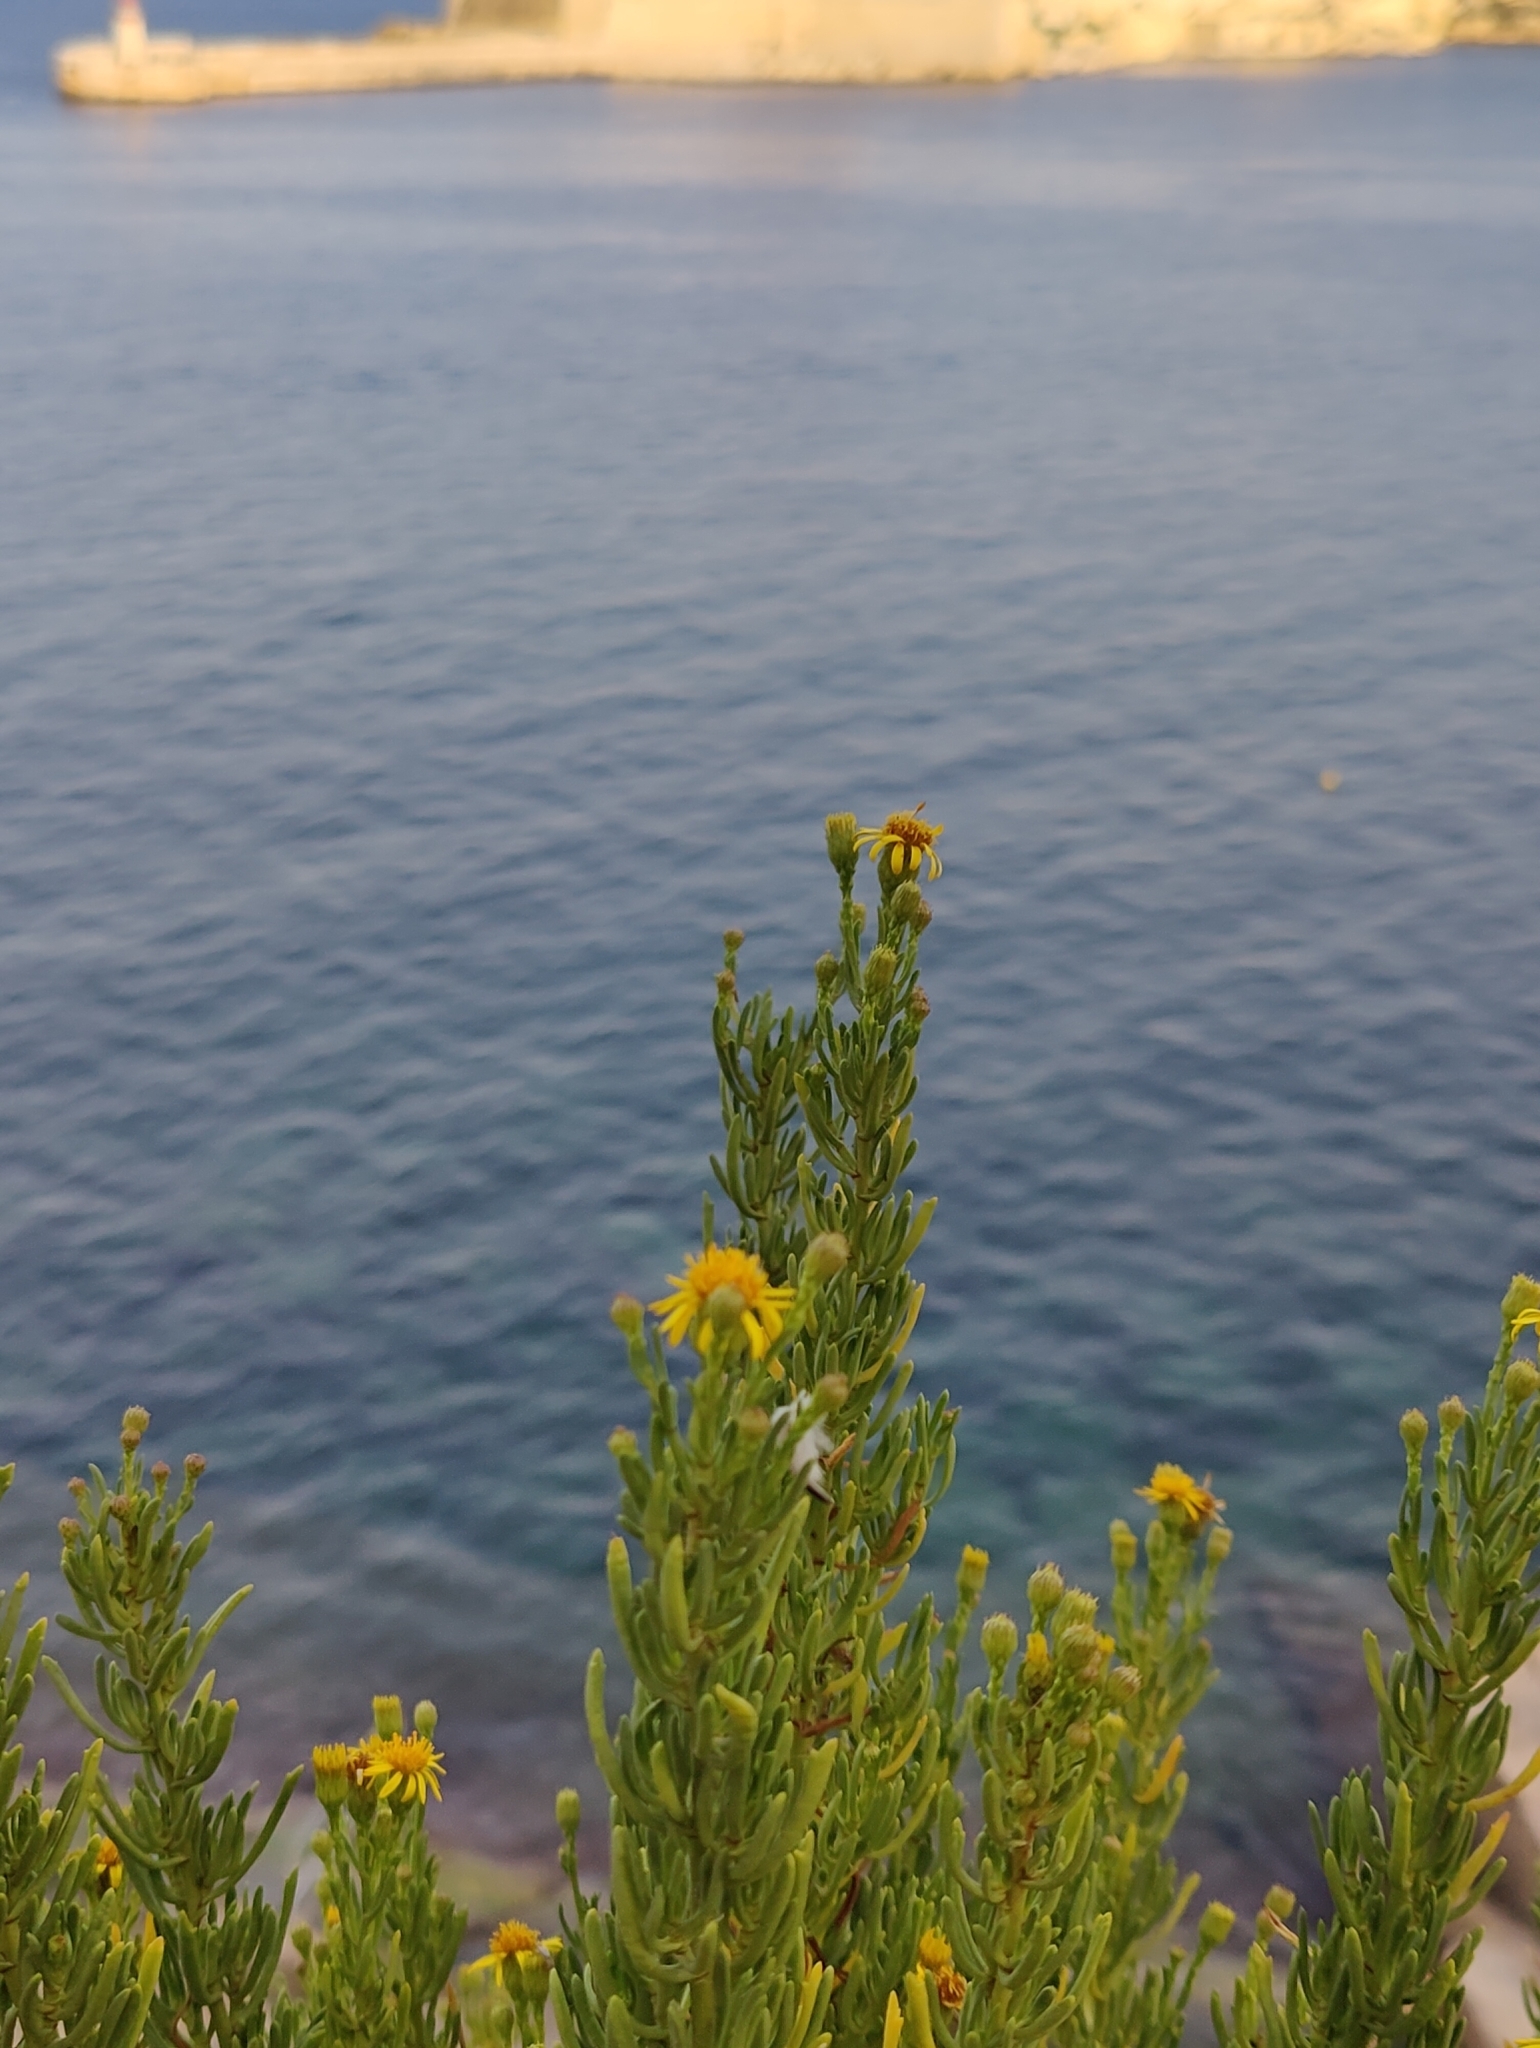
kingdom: Plantae
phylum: Tracheophyta
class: Magnoliopsida
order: Asterales
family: Asteraceae
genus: Limbarda
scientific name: Limbarda crithmoides
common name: Golden samphire
